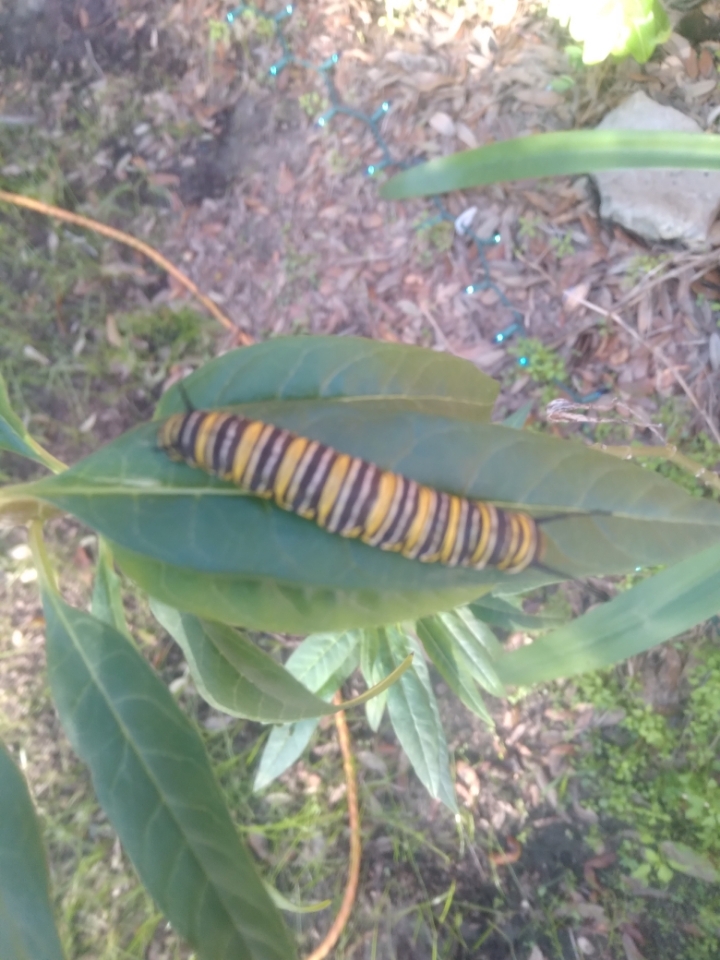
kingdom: Animalia
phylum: Arthropoda
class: Insecta
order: Lepidoptera
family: Nymphalidae
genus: Danaus
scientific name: Danaus plexippus
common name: Monarch
